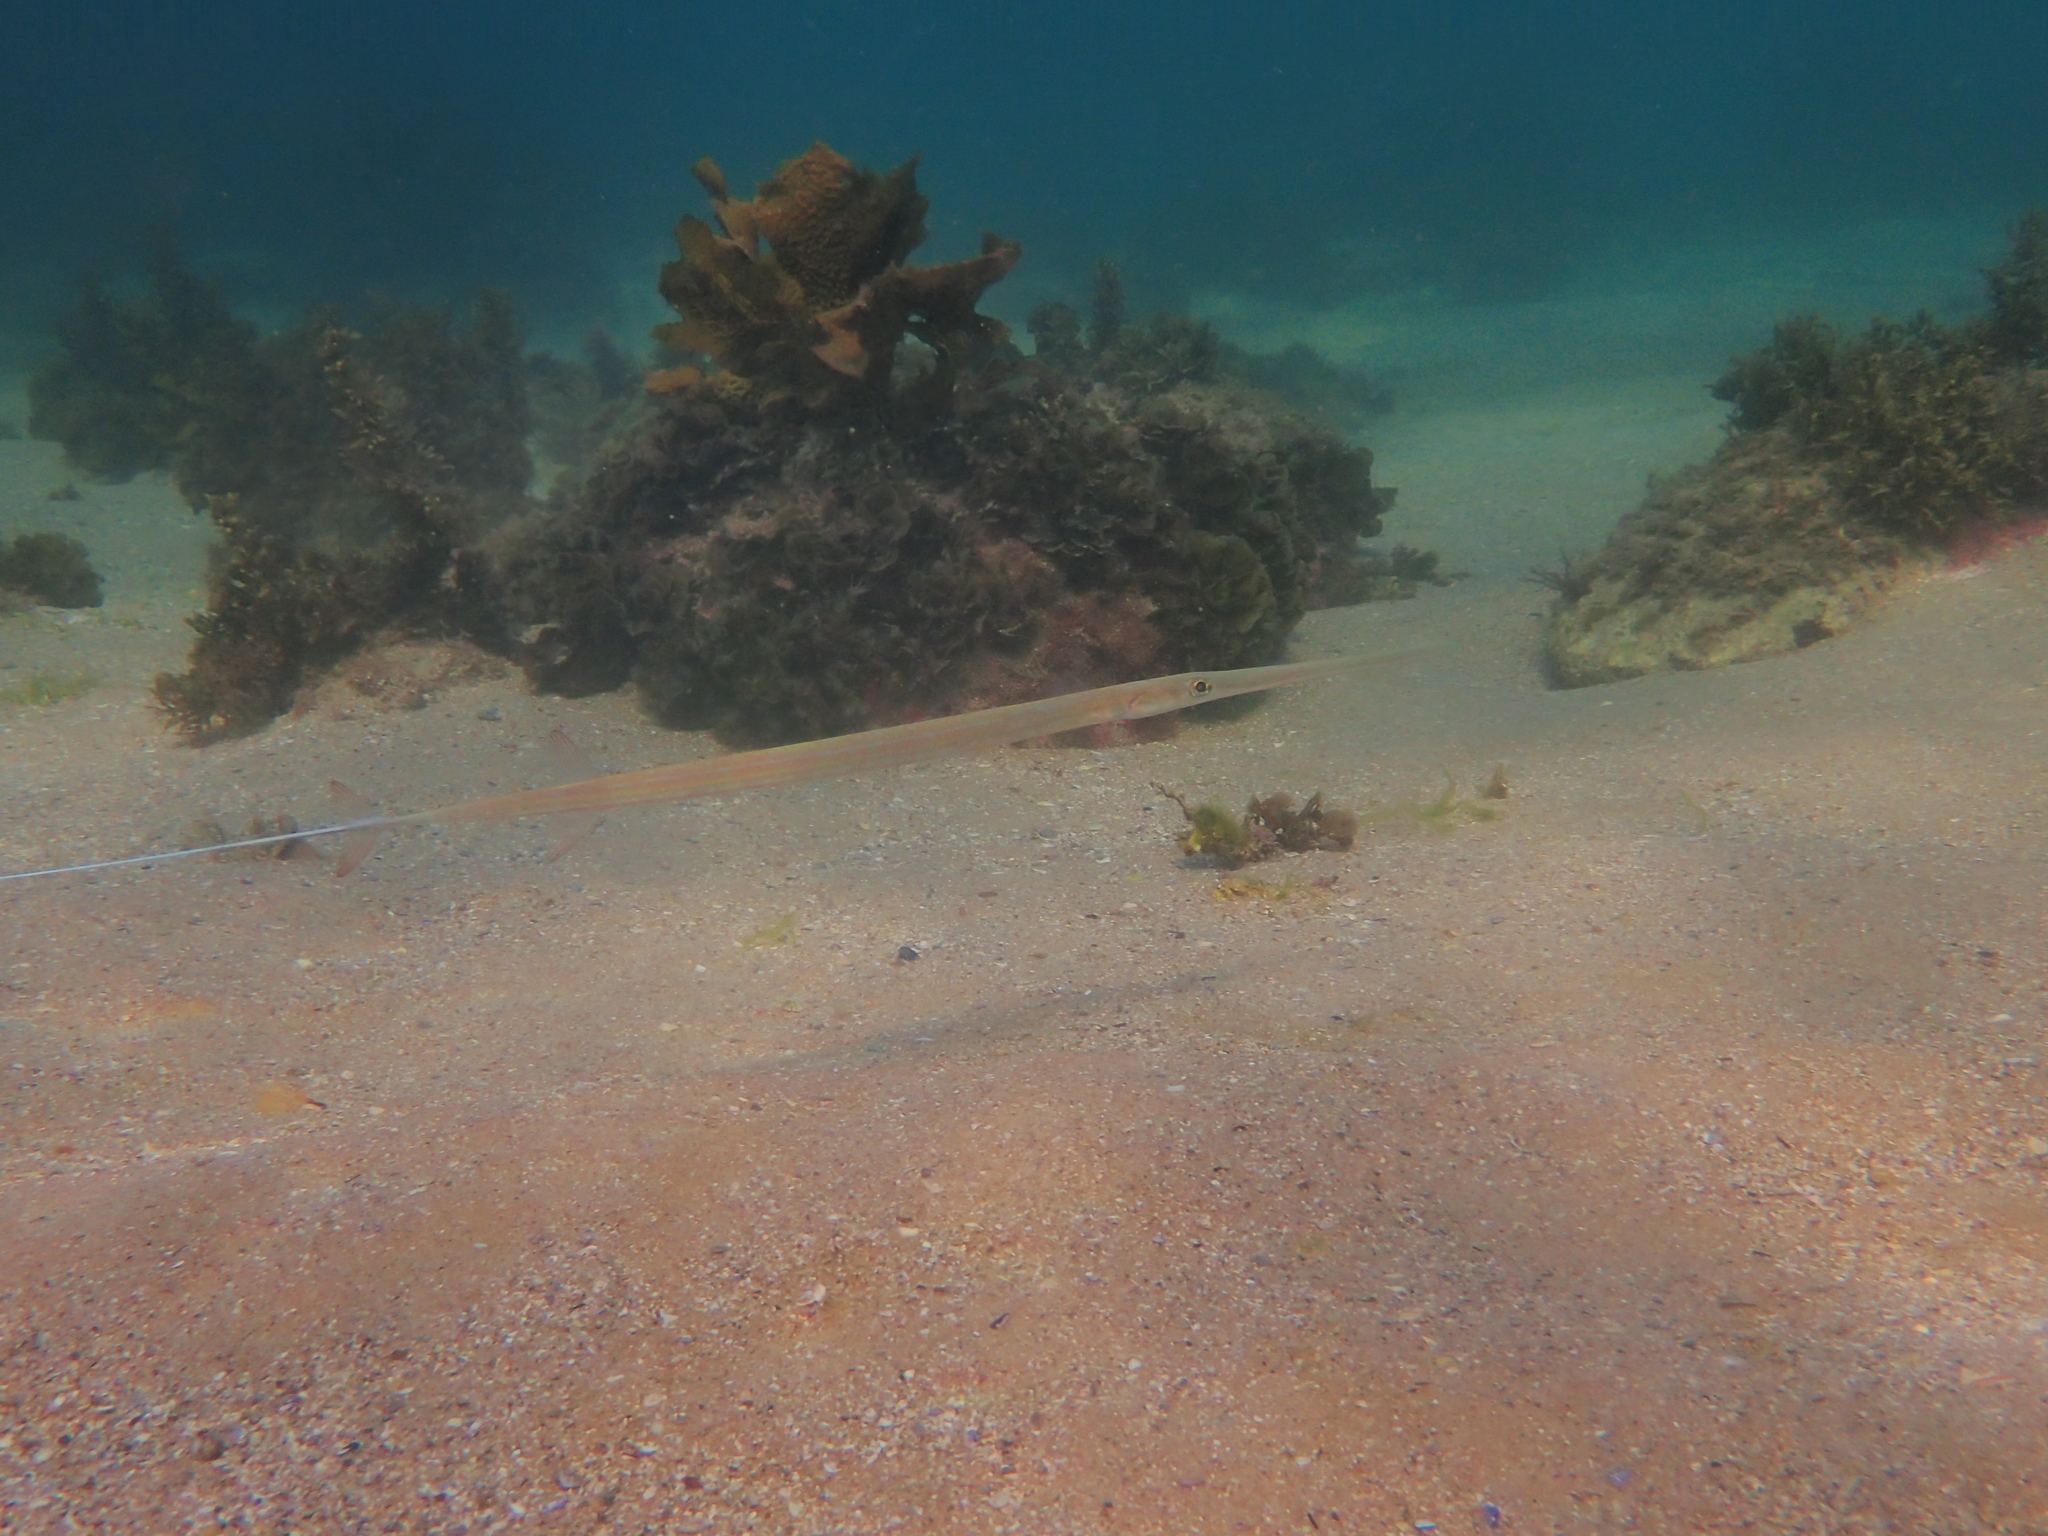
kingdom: Animalia
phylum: Chordata
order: Syngnathiformes
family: Fistulariidae
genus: Fistularia
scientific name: Fistularia commersonii
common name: Bluespotted cornetfish
